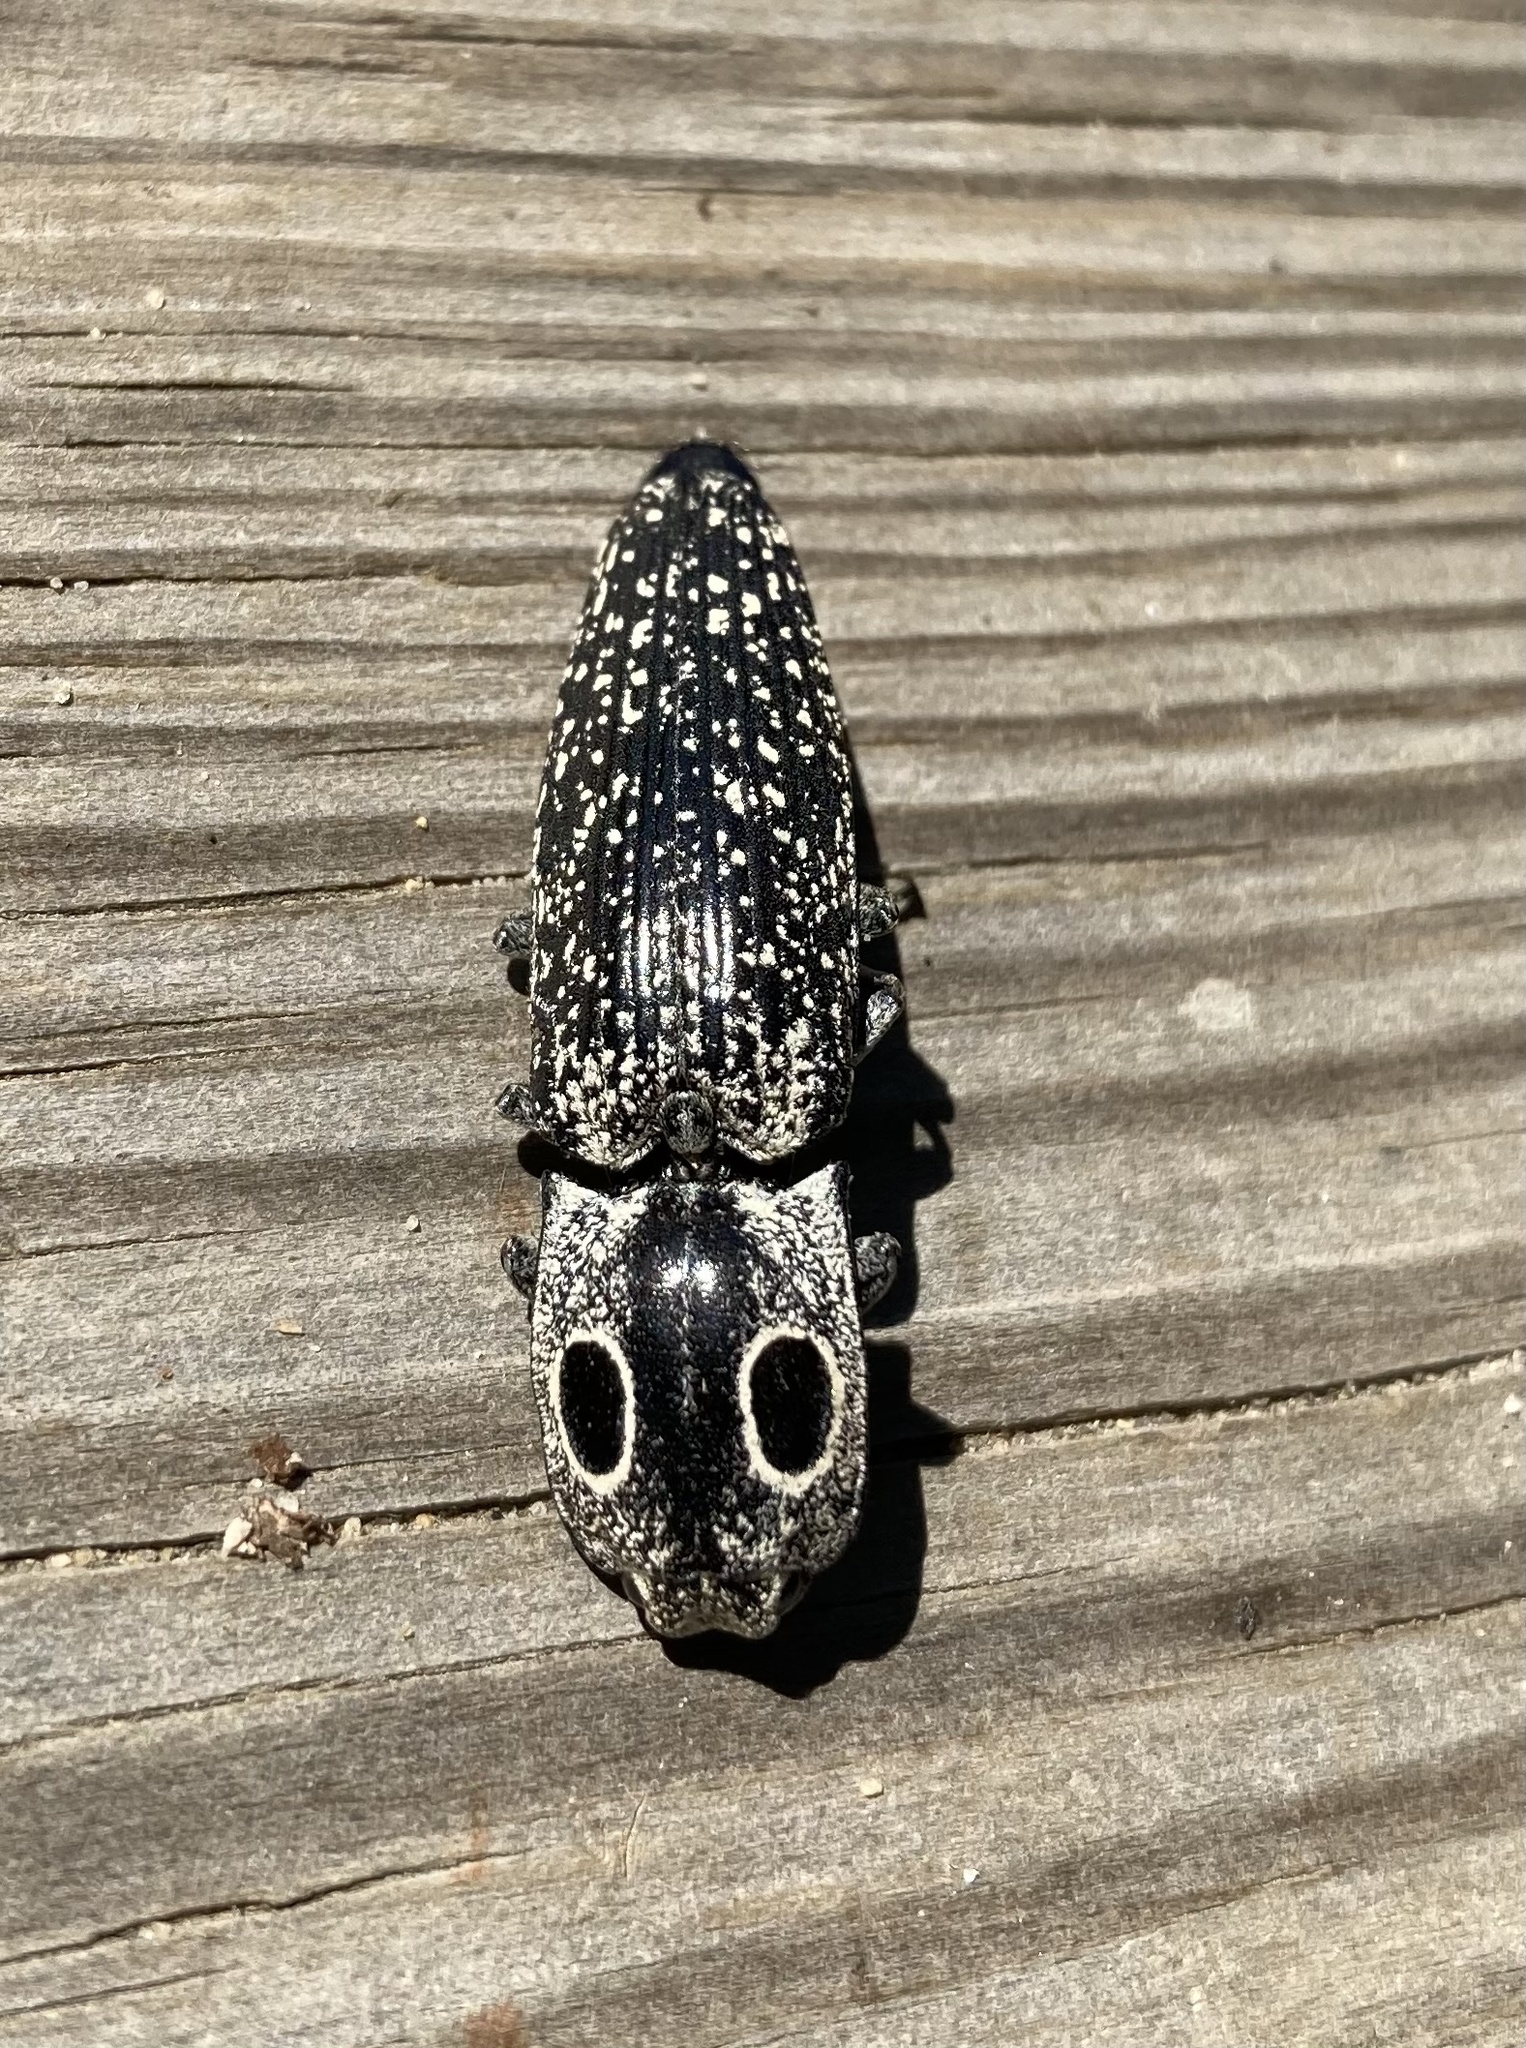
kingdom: Animalia
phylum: Arthropoda
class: Insecta
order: Coleoptera
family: Elateridae
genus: Alaus
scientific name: Alaus oculatus
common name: Eastern eyed click beetle
